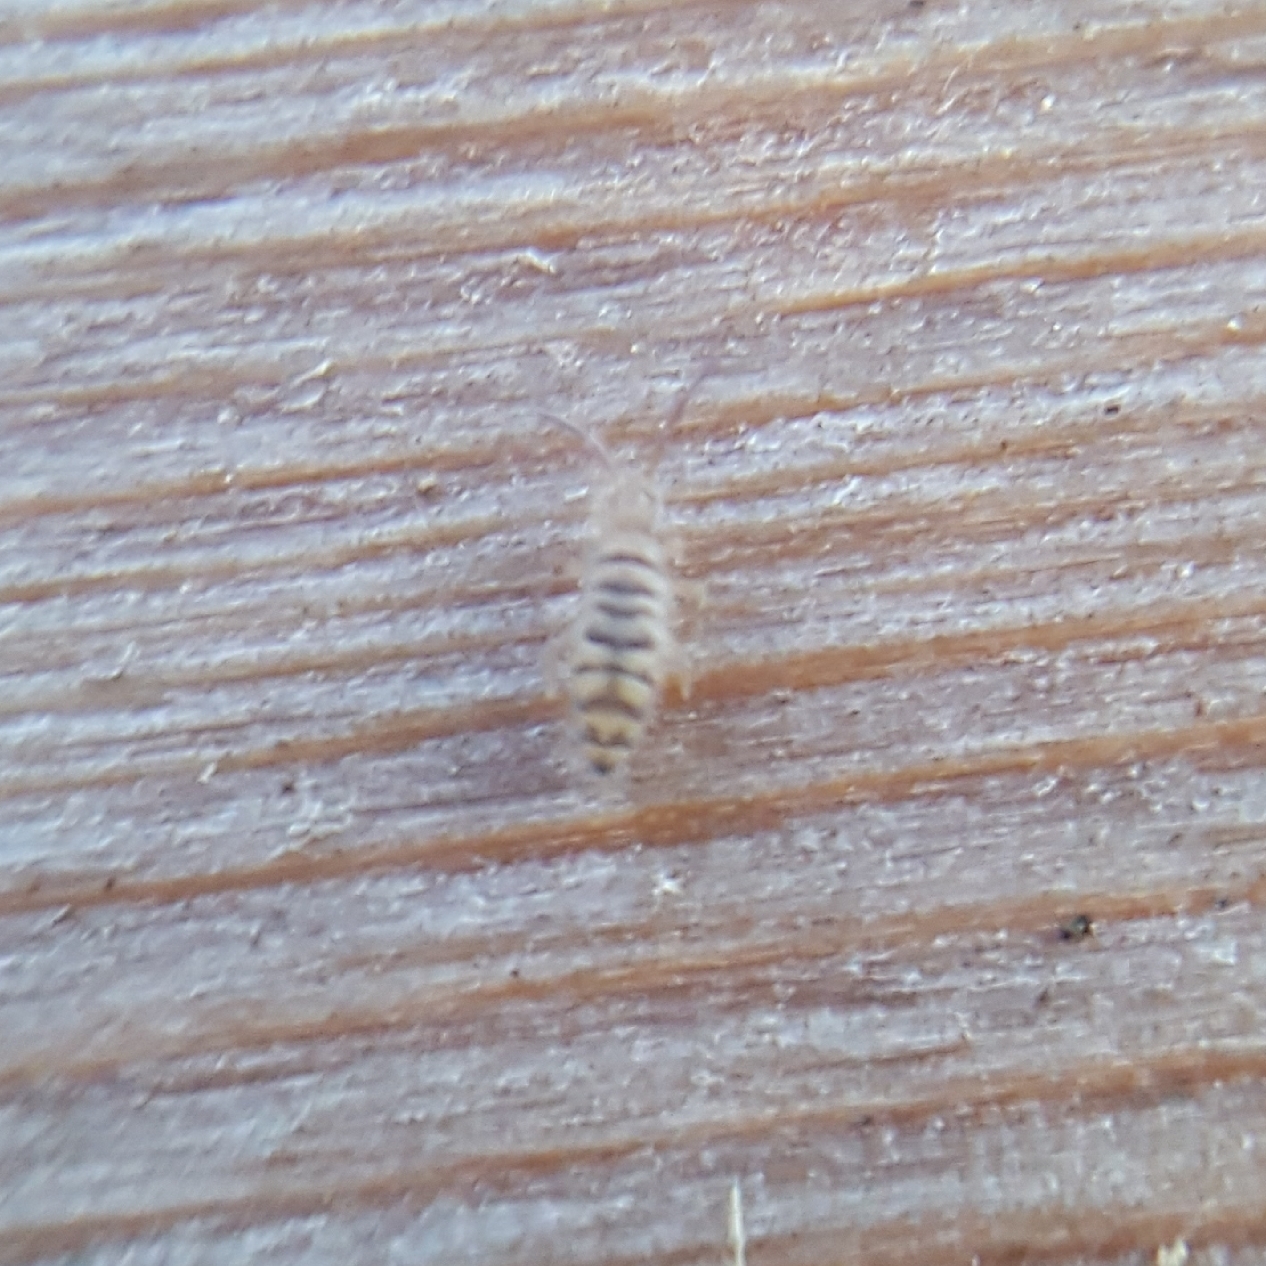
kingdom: Animalia
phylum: Arthropoda
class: Collembola
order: Entomobryomorpha
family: Entomobryidae
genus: Entomobrya
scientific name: Entomobrya multifasciata
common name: Springtail
